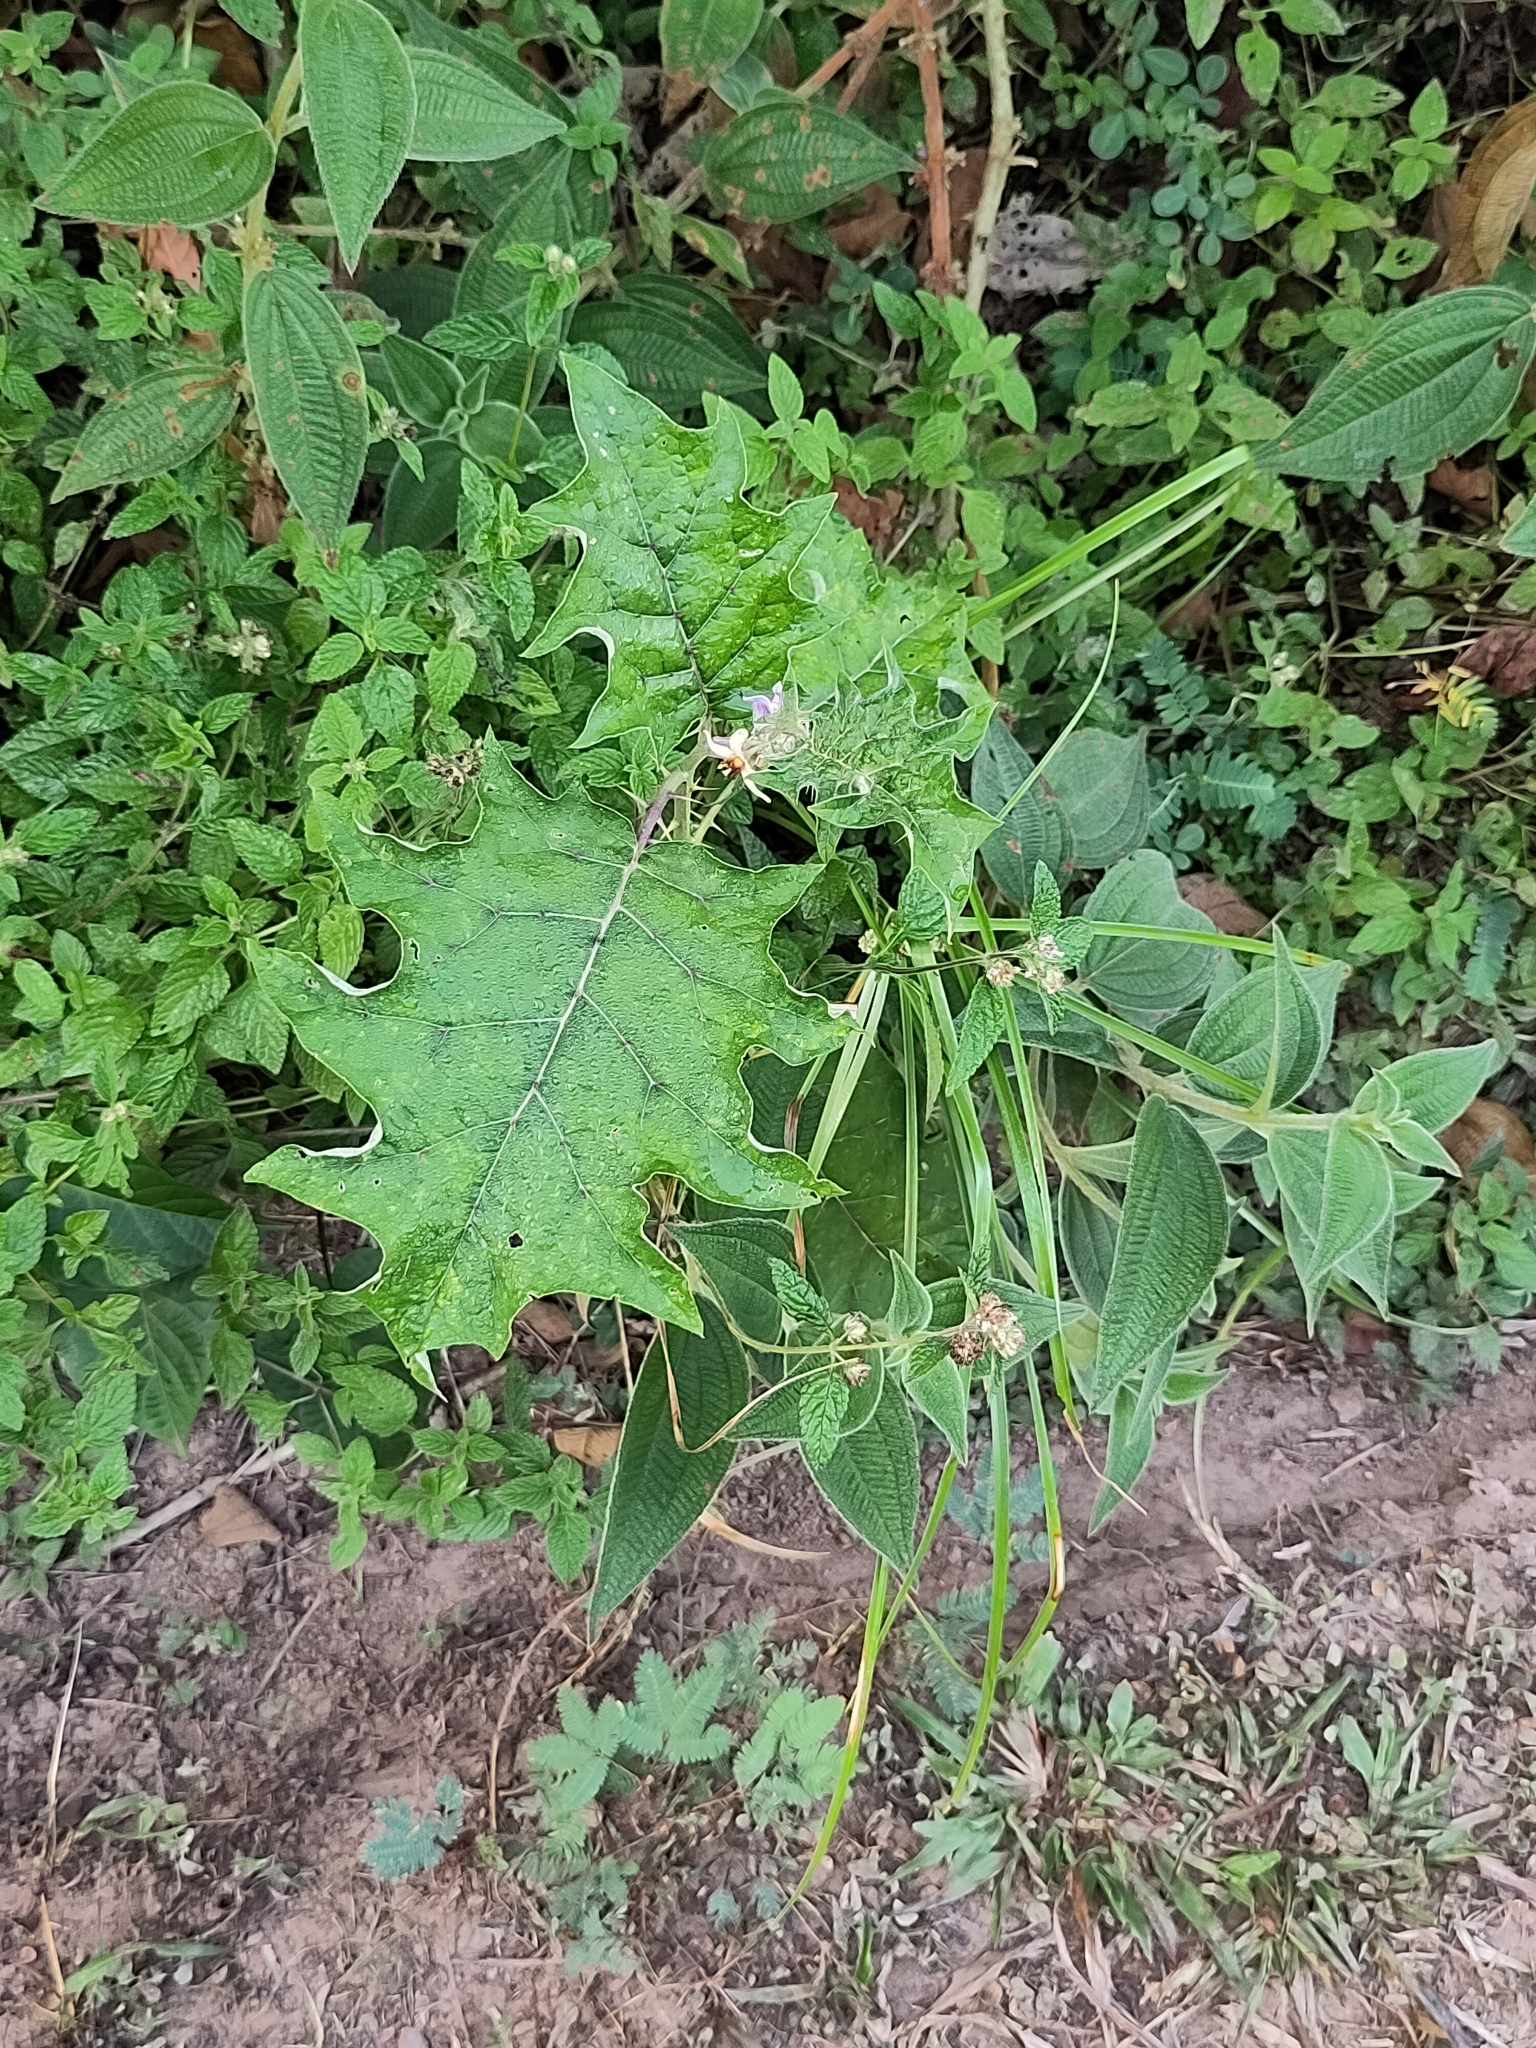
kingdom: Plantae
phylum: Tracheophyta
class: Magnoliopsida
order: Solanales
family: Solanaceae
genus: Solanum
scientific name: Solanum
